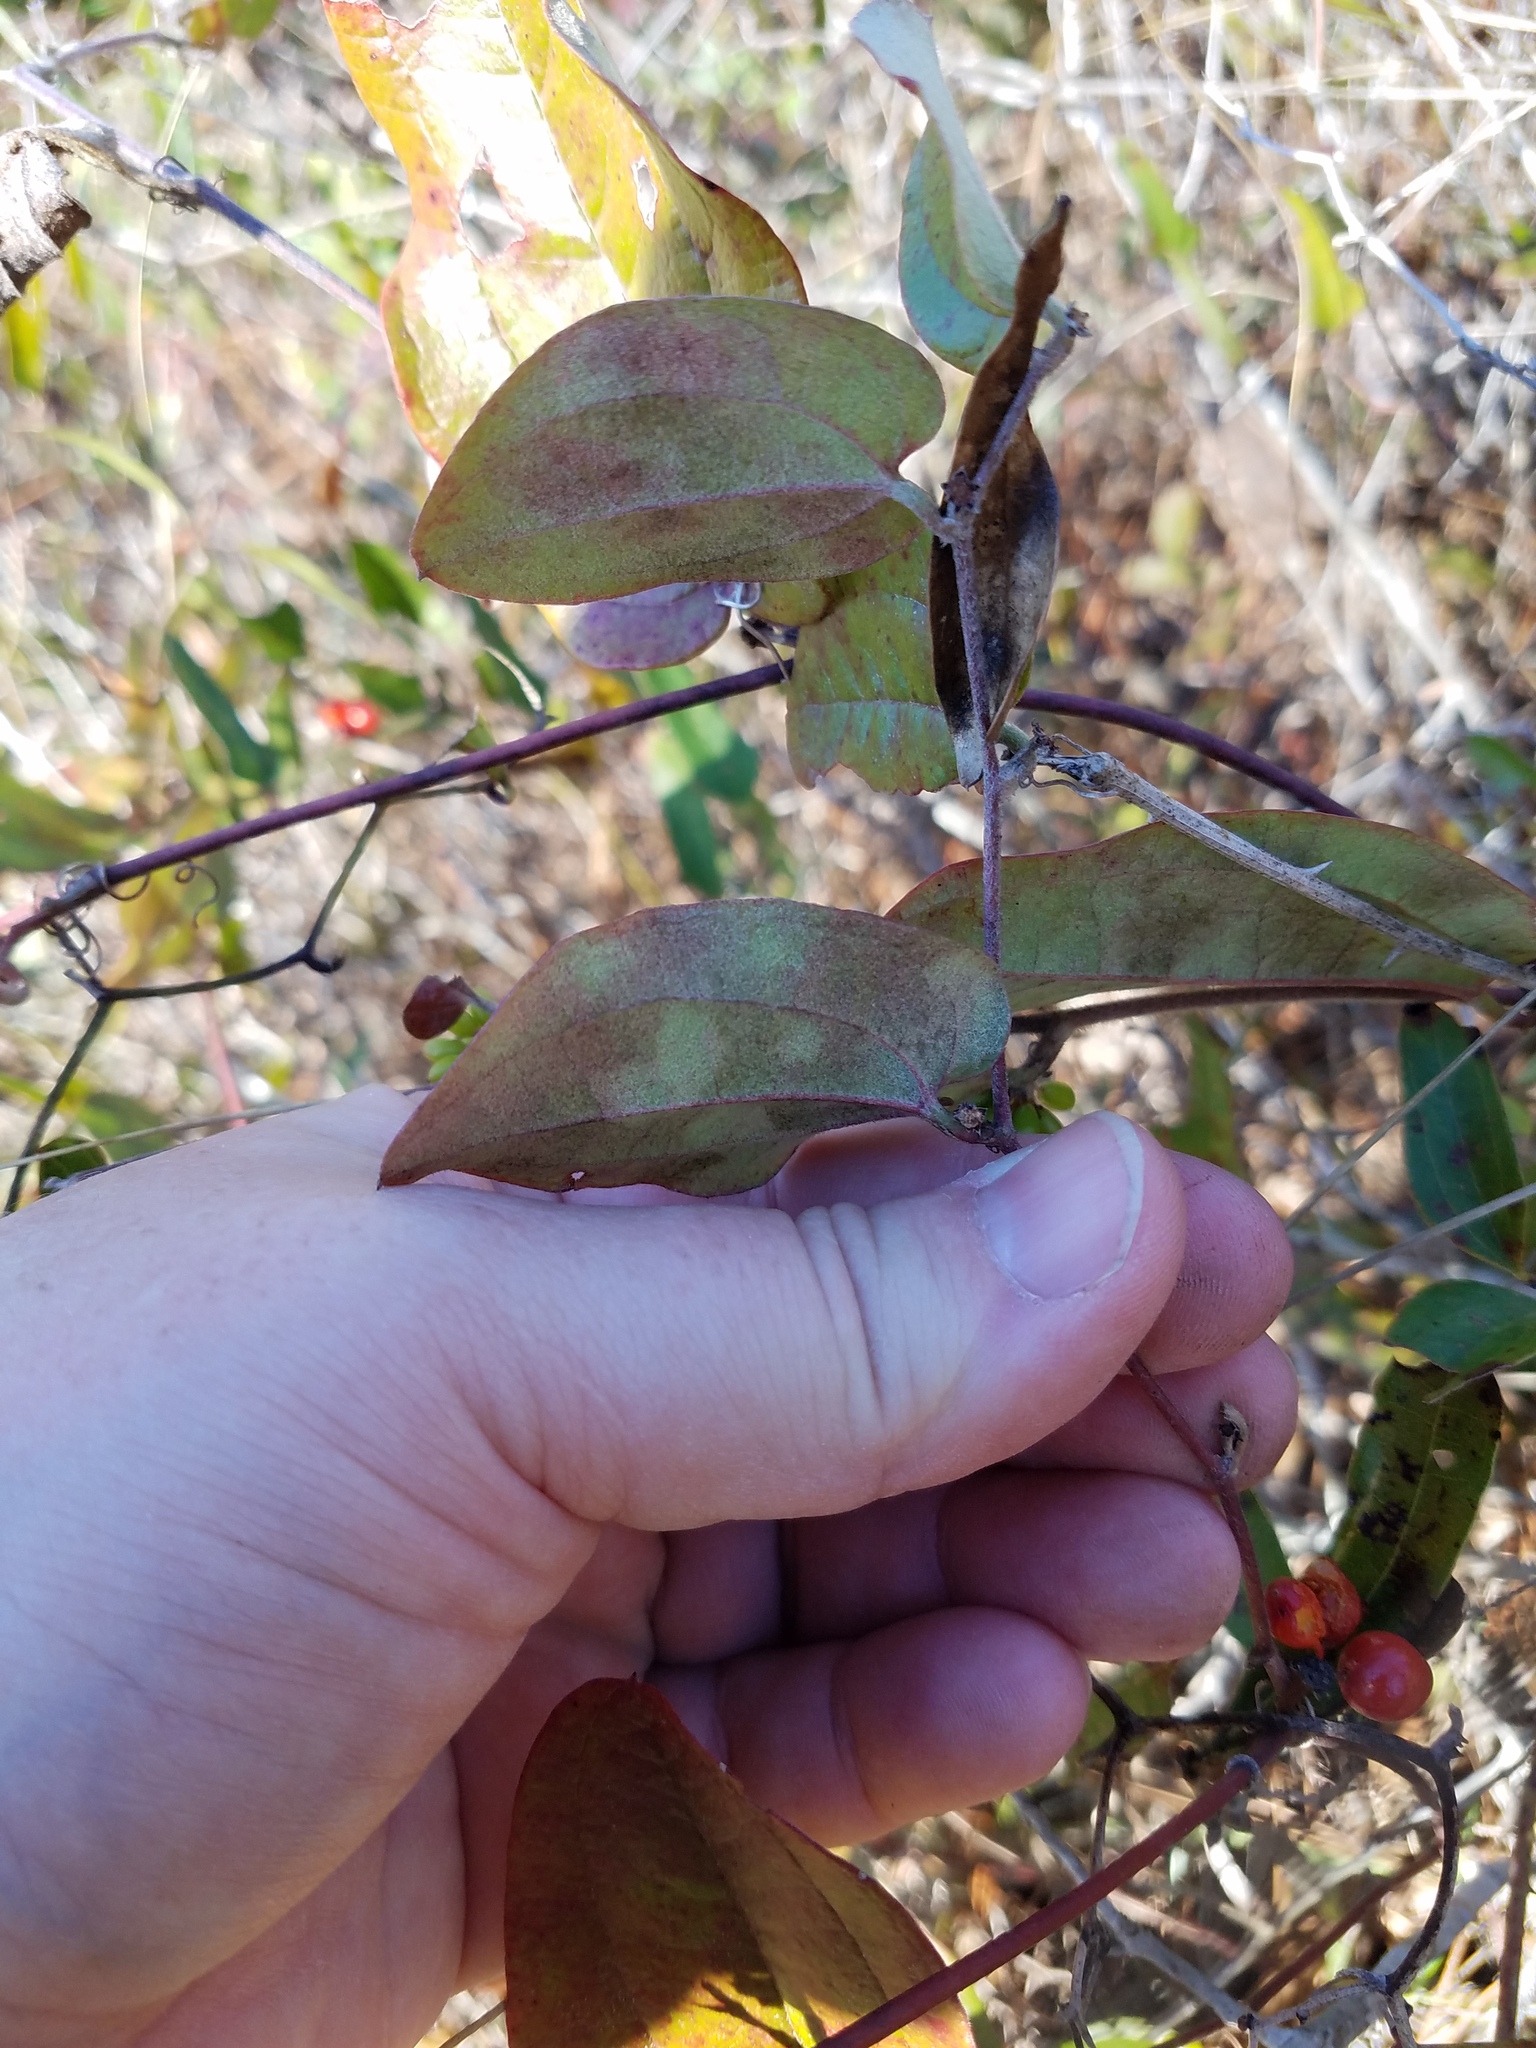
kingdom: Plantae
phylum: Tracheophyta
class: Liliopsida
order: Liliales
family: Smilacaceae
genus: Smilax
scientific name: Smilax pumila
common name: Sarsaparilla-vine
